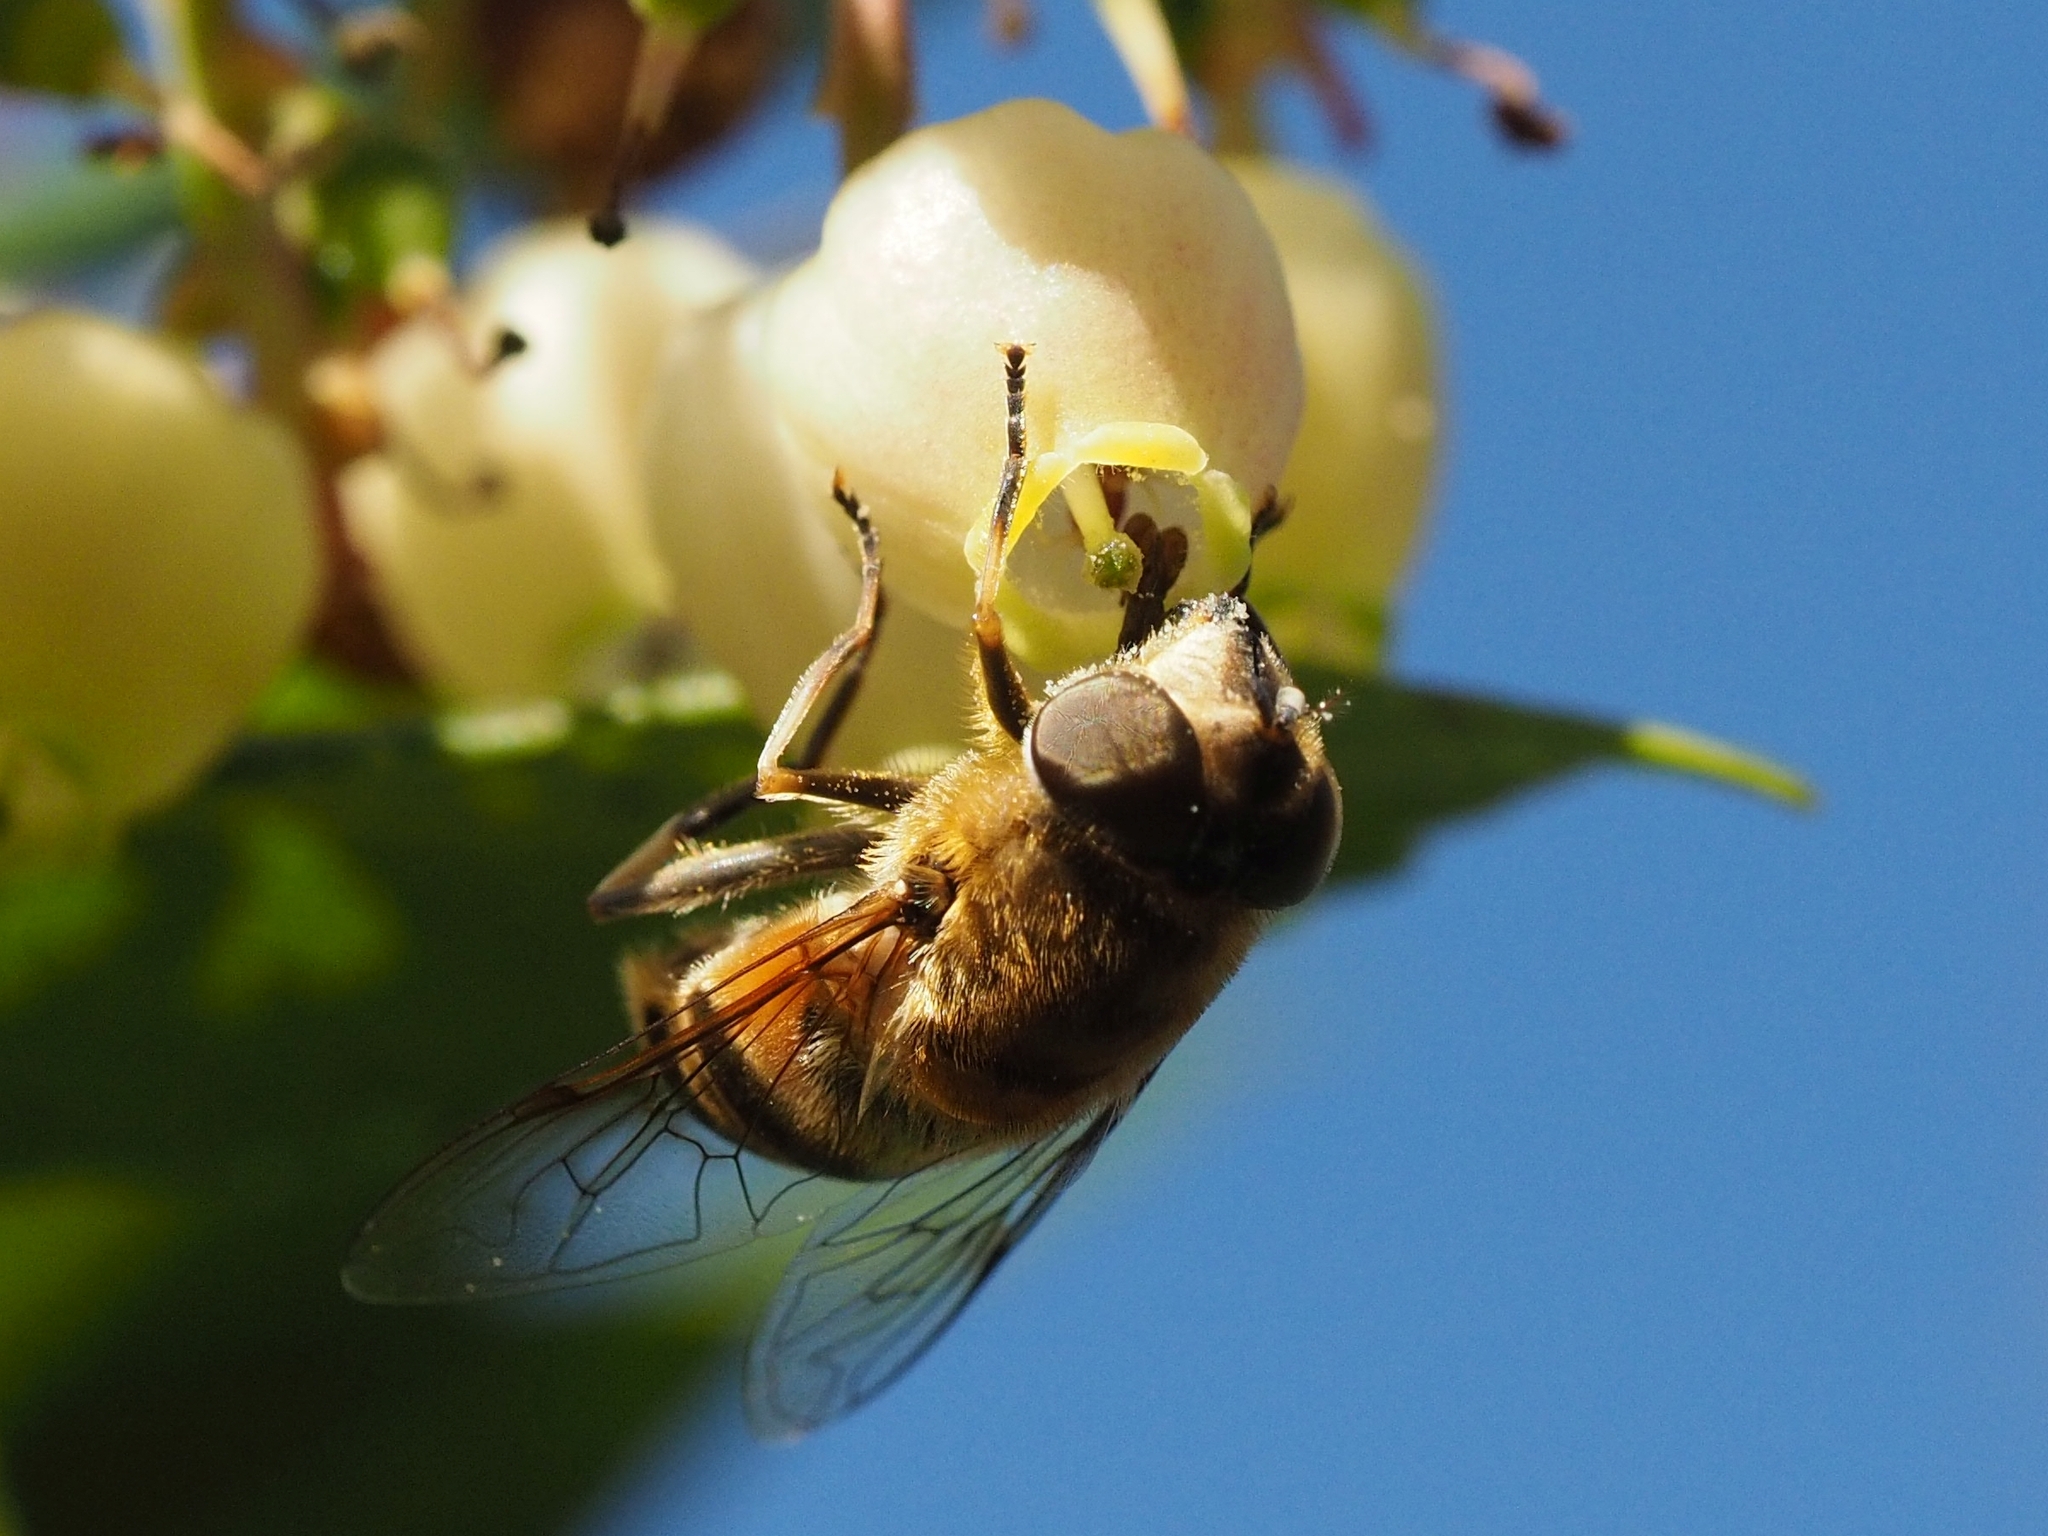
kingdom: Animalia
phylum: Arthropoda
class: Insecta
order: Diptera
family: Syrphidae
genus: Eristalis
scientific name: Eristalis pertinax
